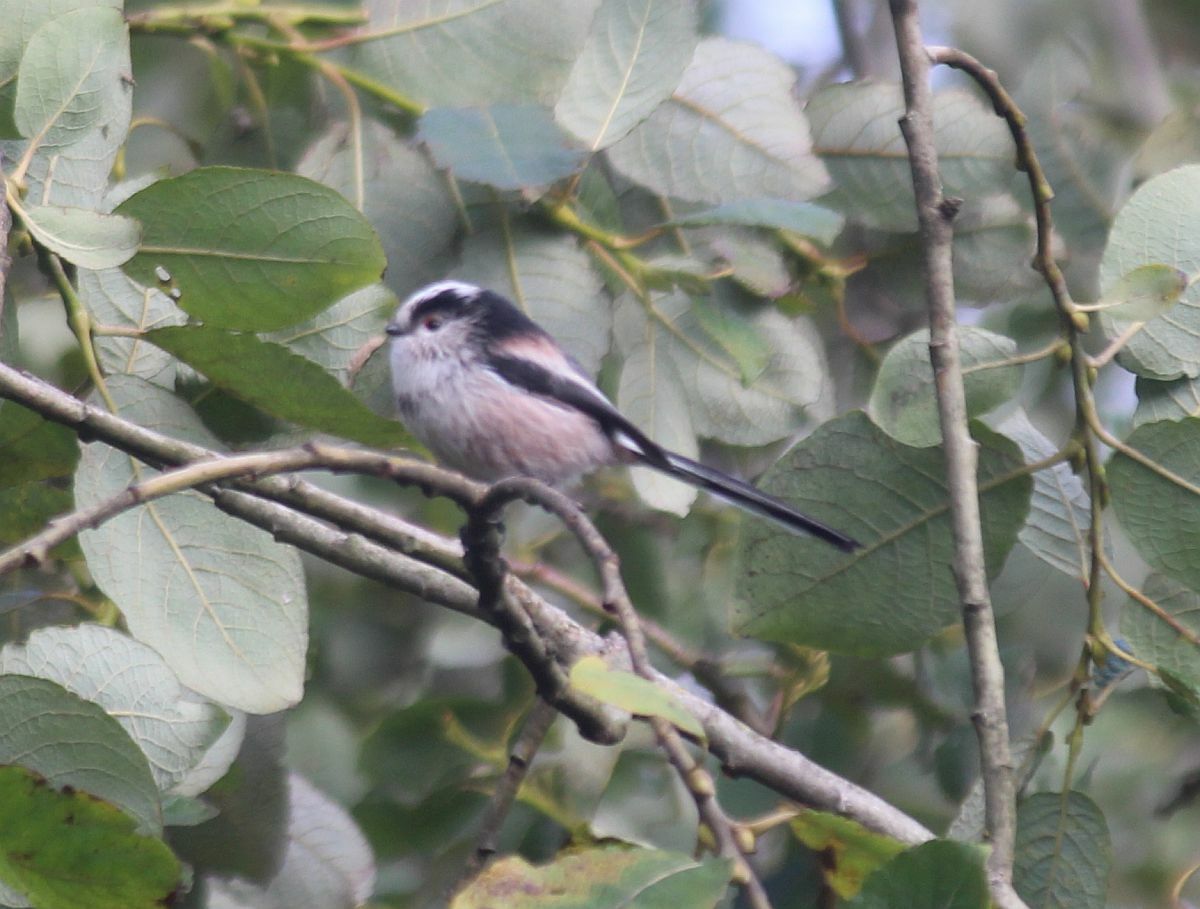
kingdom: Animalia
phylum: Chordata
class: Aves
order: Passeriformes
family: Aegithalidae
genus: Aegithalos
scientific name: Aegithalos caudatus
